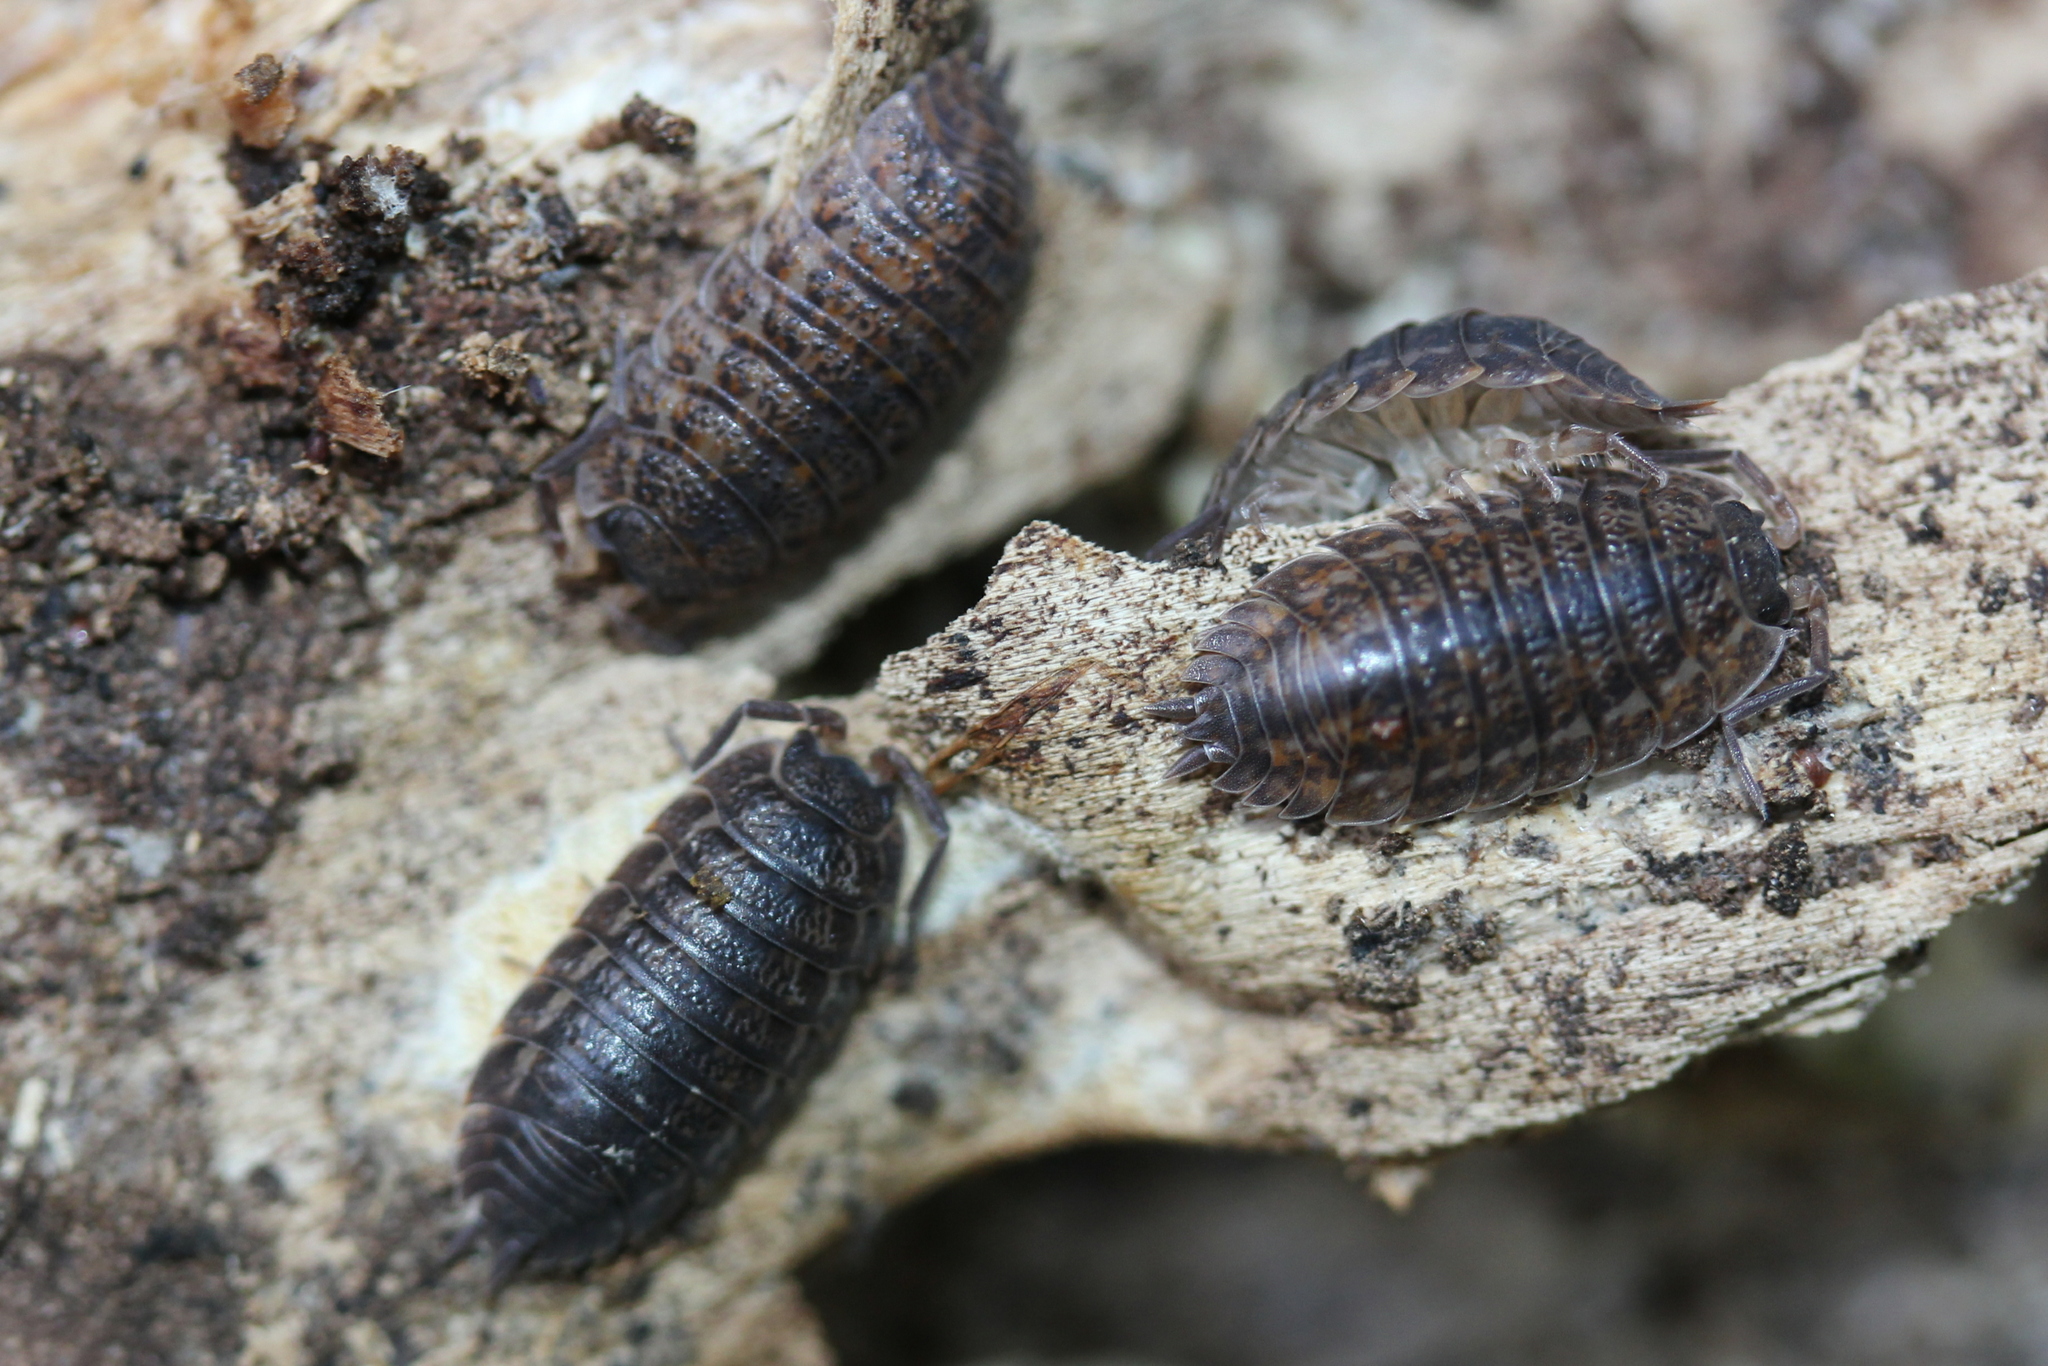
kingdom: Animalia
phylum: Arthropoda
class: Malacostraca
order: Isopoda
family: Trachelipodidae
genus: Trachelipus
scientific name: Trachelipus rathkii
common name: Isopod
